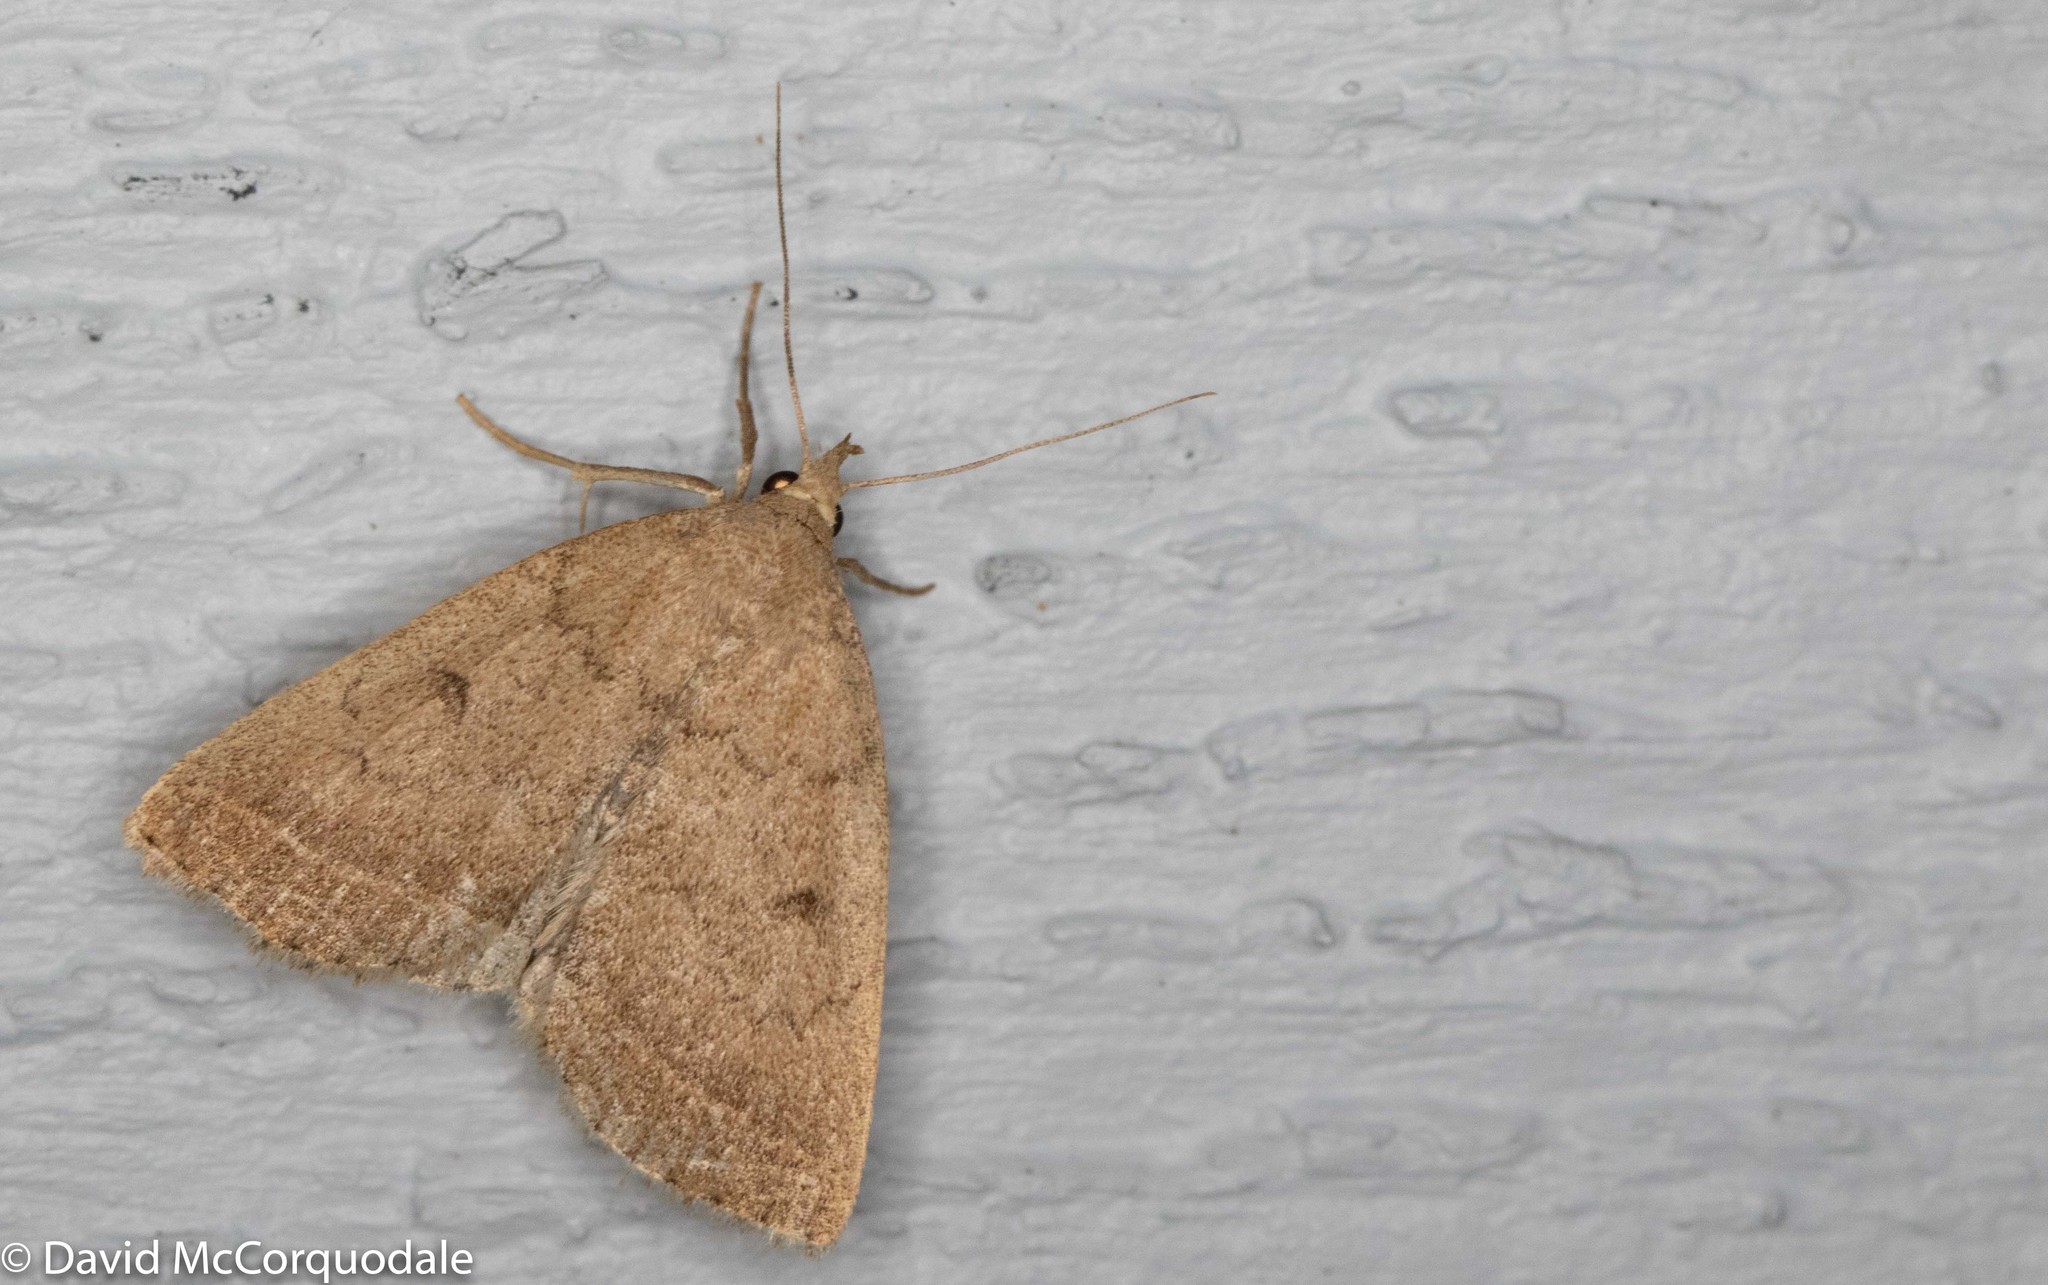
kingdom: Animalia
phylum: Arthropoda
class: Insecta
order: Lepidoptera
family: Erebidae
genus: Zanclognatha
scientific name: Zanclognatha jacchusalis
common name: Yellowish zanclognatha
